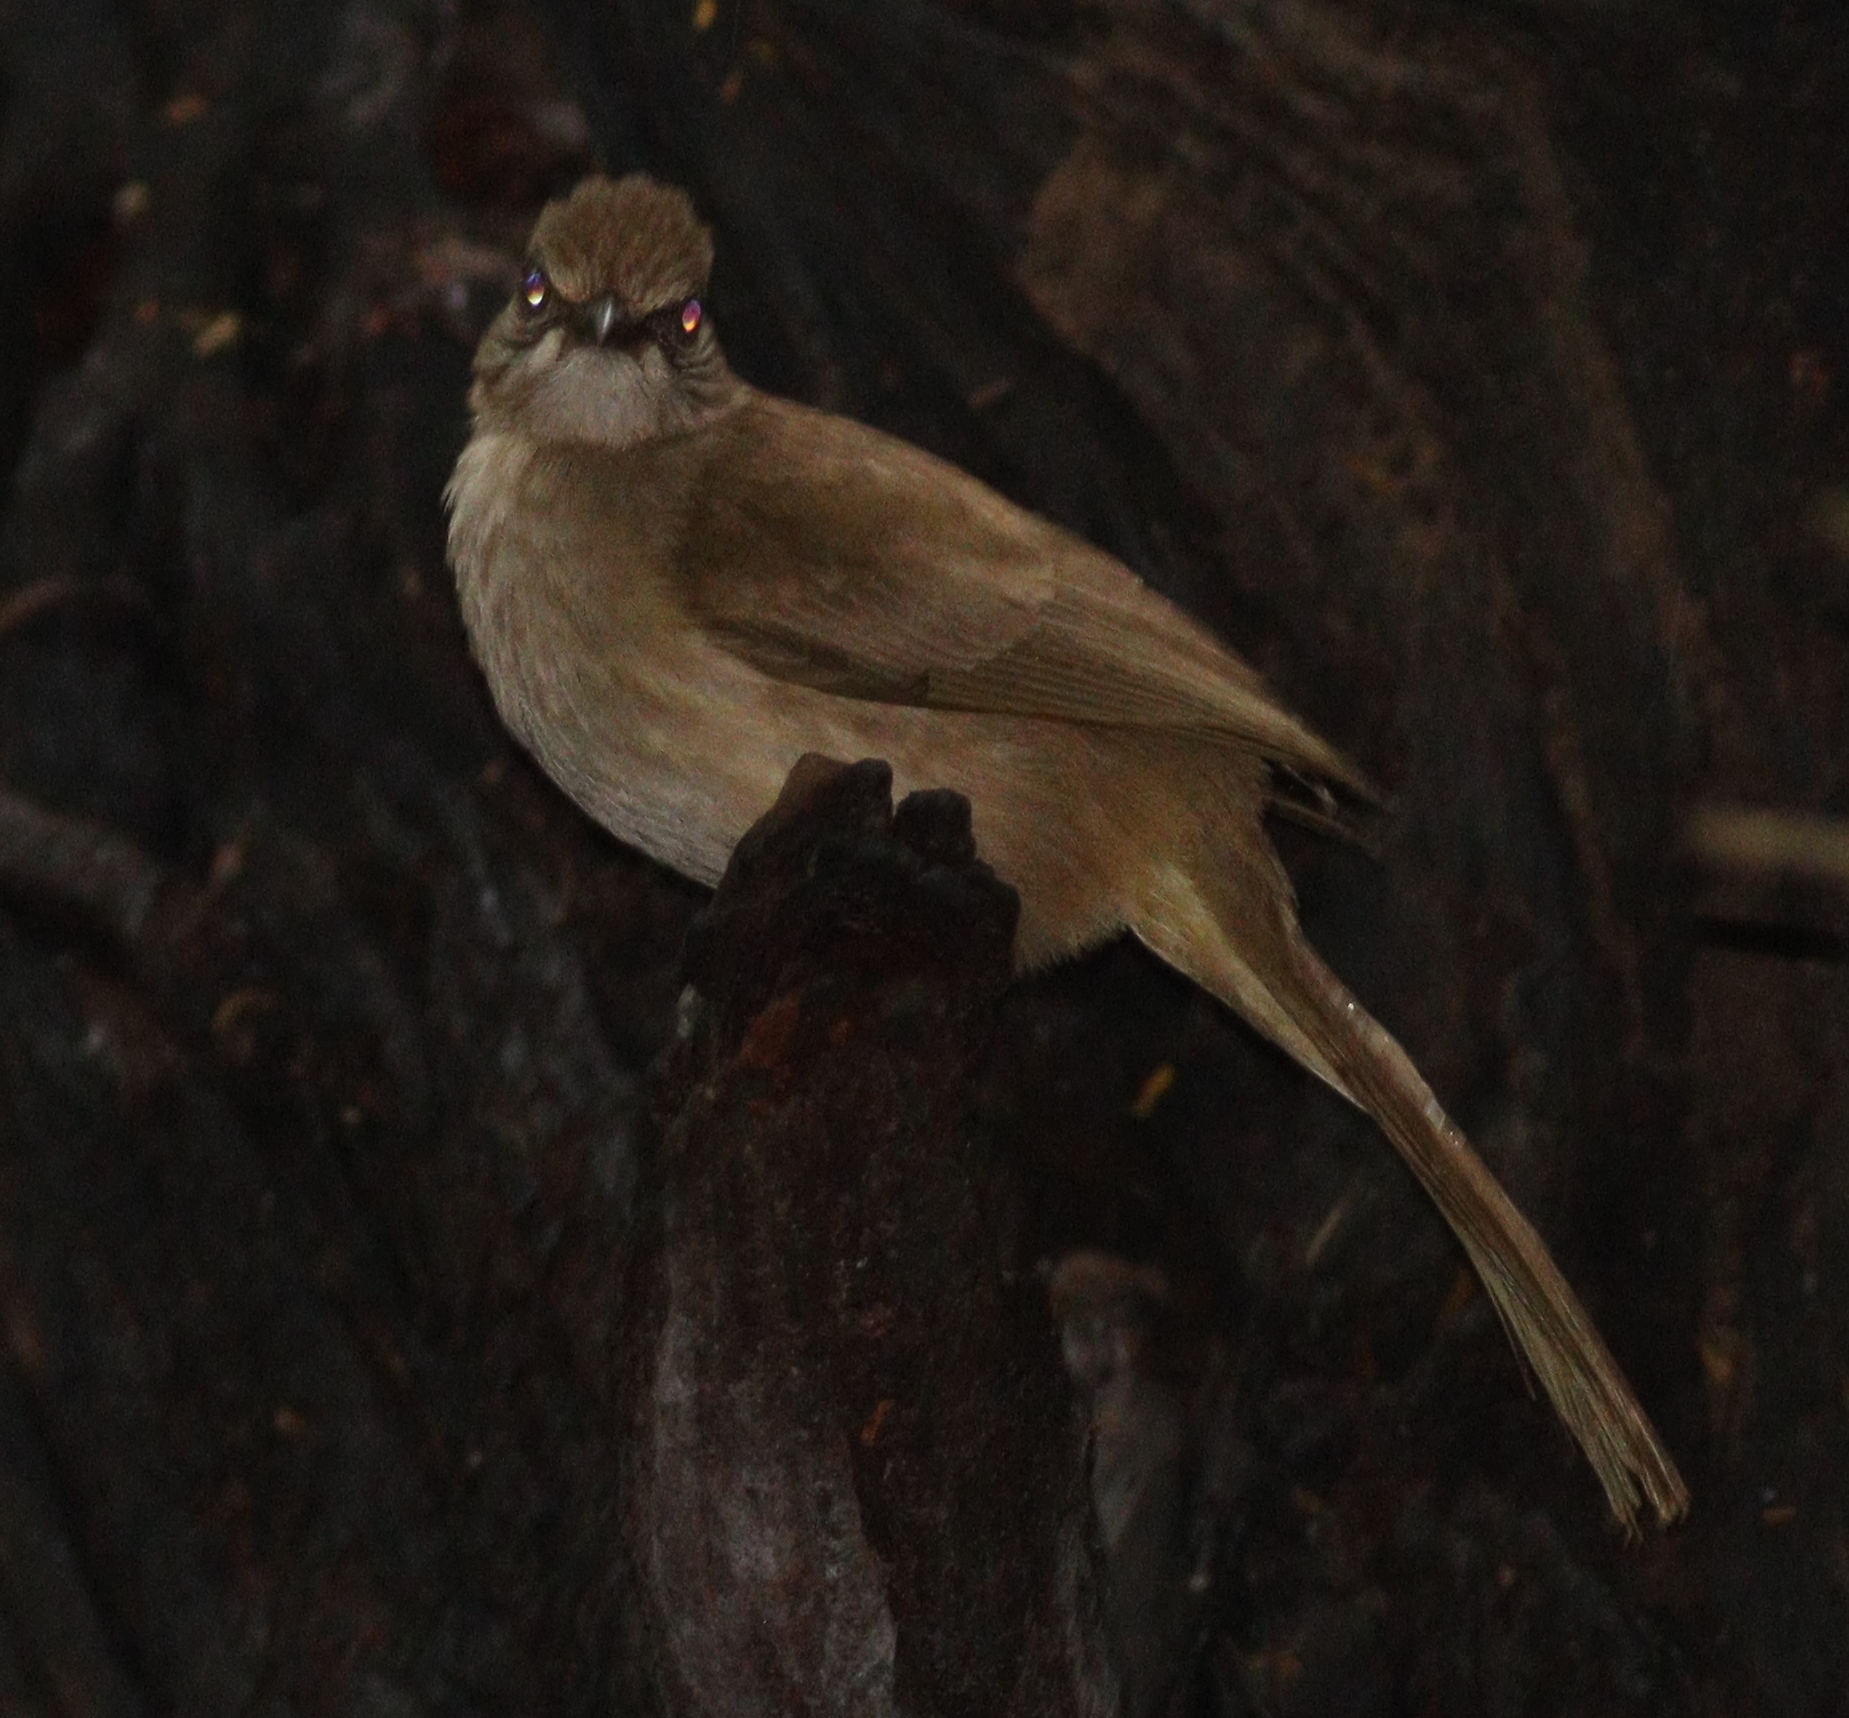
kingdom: Animalia
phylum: Chordata
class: Aves
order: Passeriformes
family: Pycnonotidae
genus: Pycnonotus
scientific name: Pycnonotus blanfordi
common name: Streak-eared bulbul
